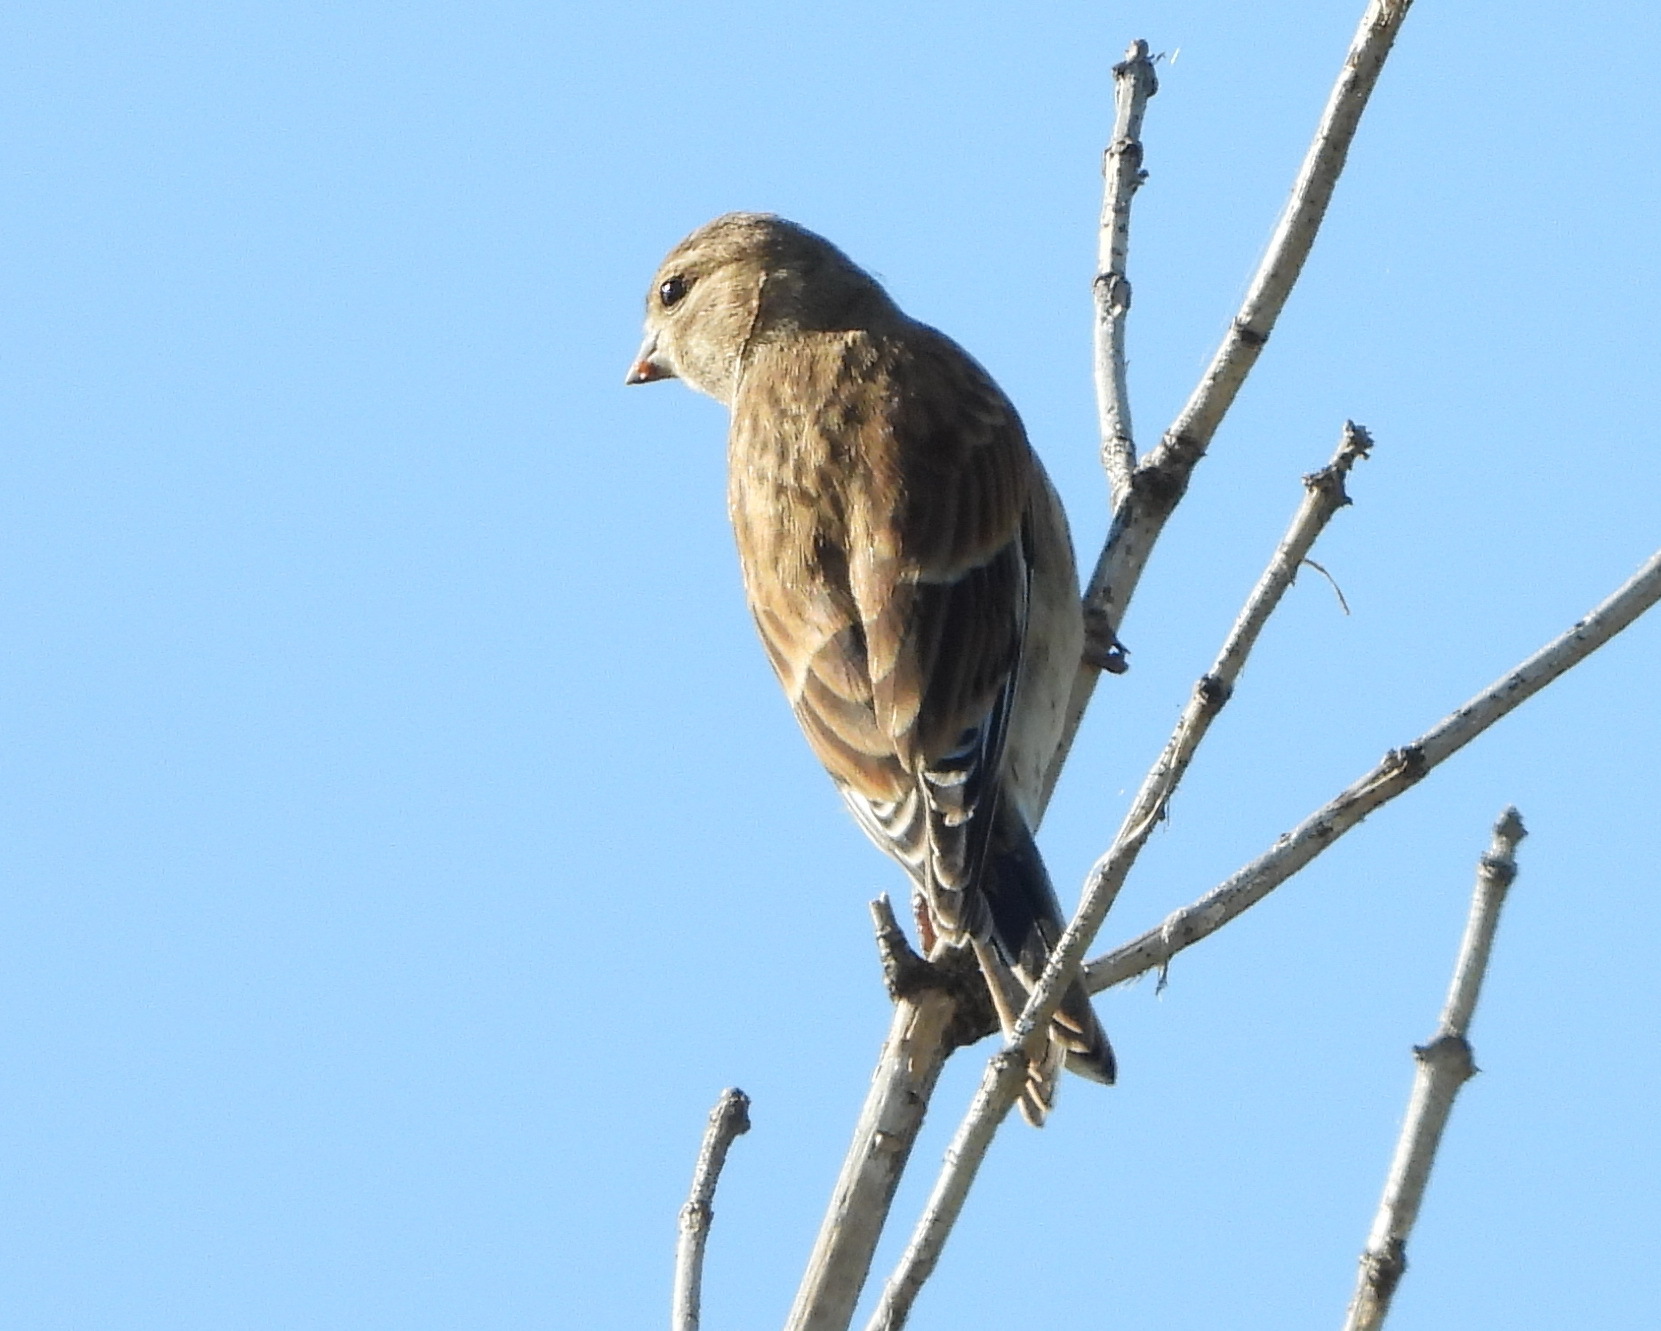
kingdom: Animalia
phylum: Chordata
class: Aves
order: Passeriformes
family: Fringillidae
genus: Linaria
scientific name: Linaria cannabina
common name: Common linnet
